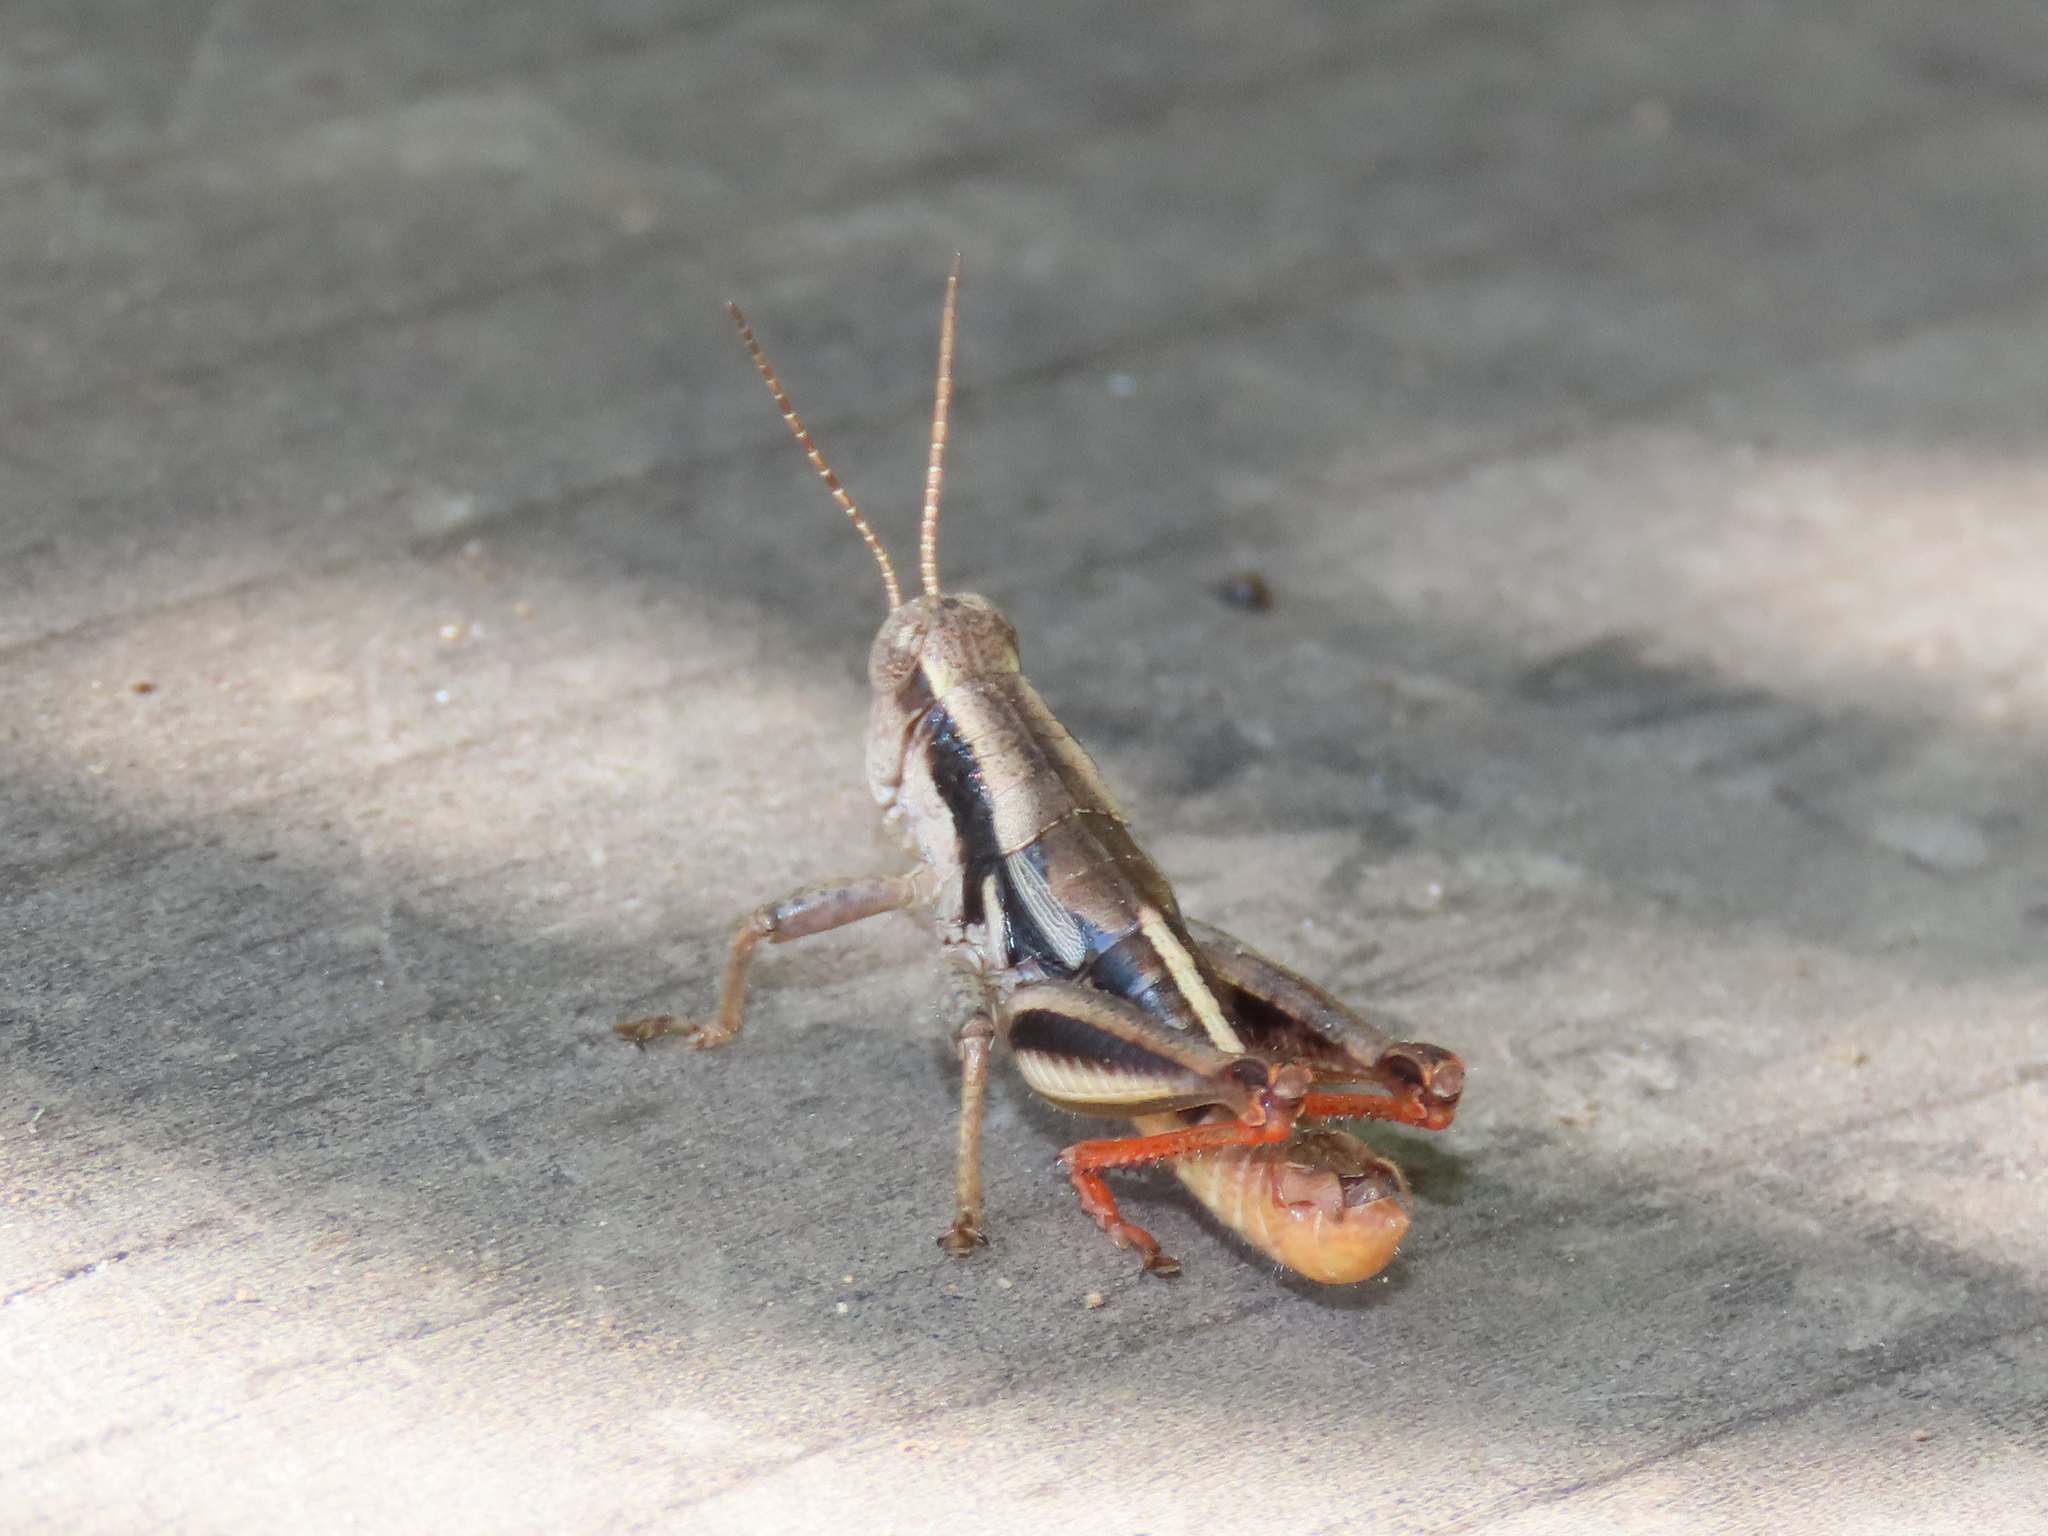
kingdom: Animalia
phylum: Arthropoda
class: Insecta
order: Orthoptera
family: Acrididae
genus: Conalcaea
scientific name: Conalcaea huachucana
